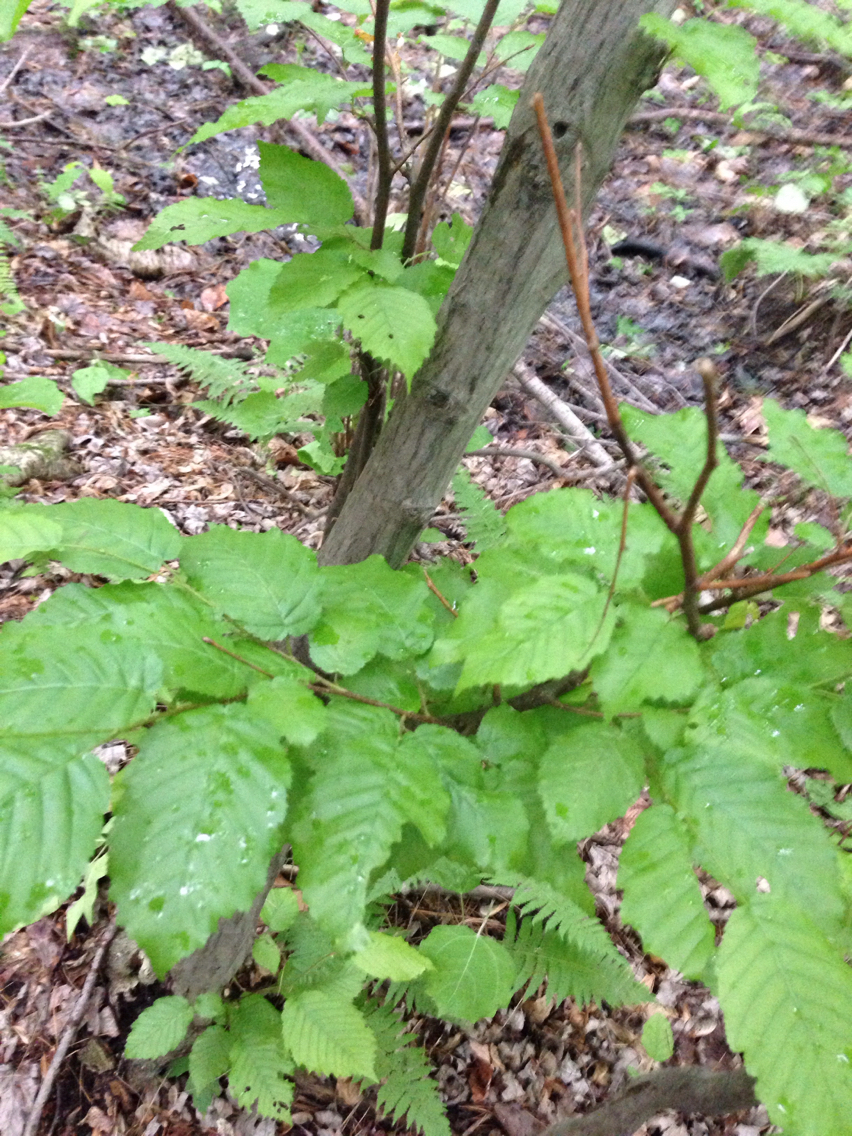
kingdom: Plantae
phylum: Tracheophyta
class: Magnoliopsida
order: Fagales
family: Betulaceae
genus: Carpinus
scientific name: Carpinus caroliniana
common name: American hornbeam
